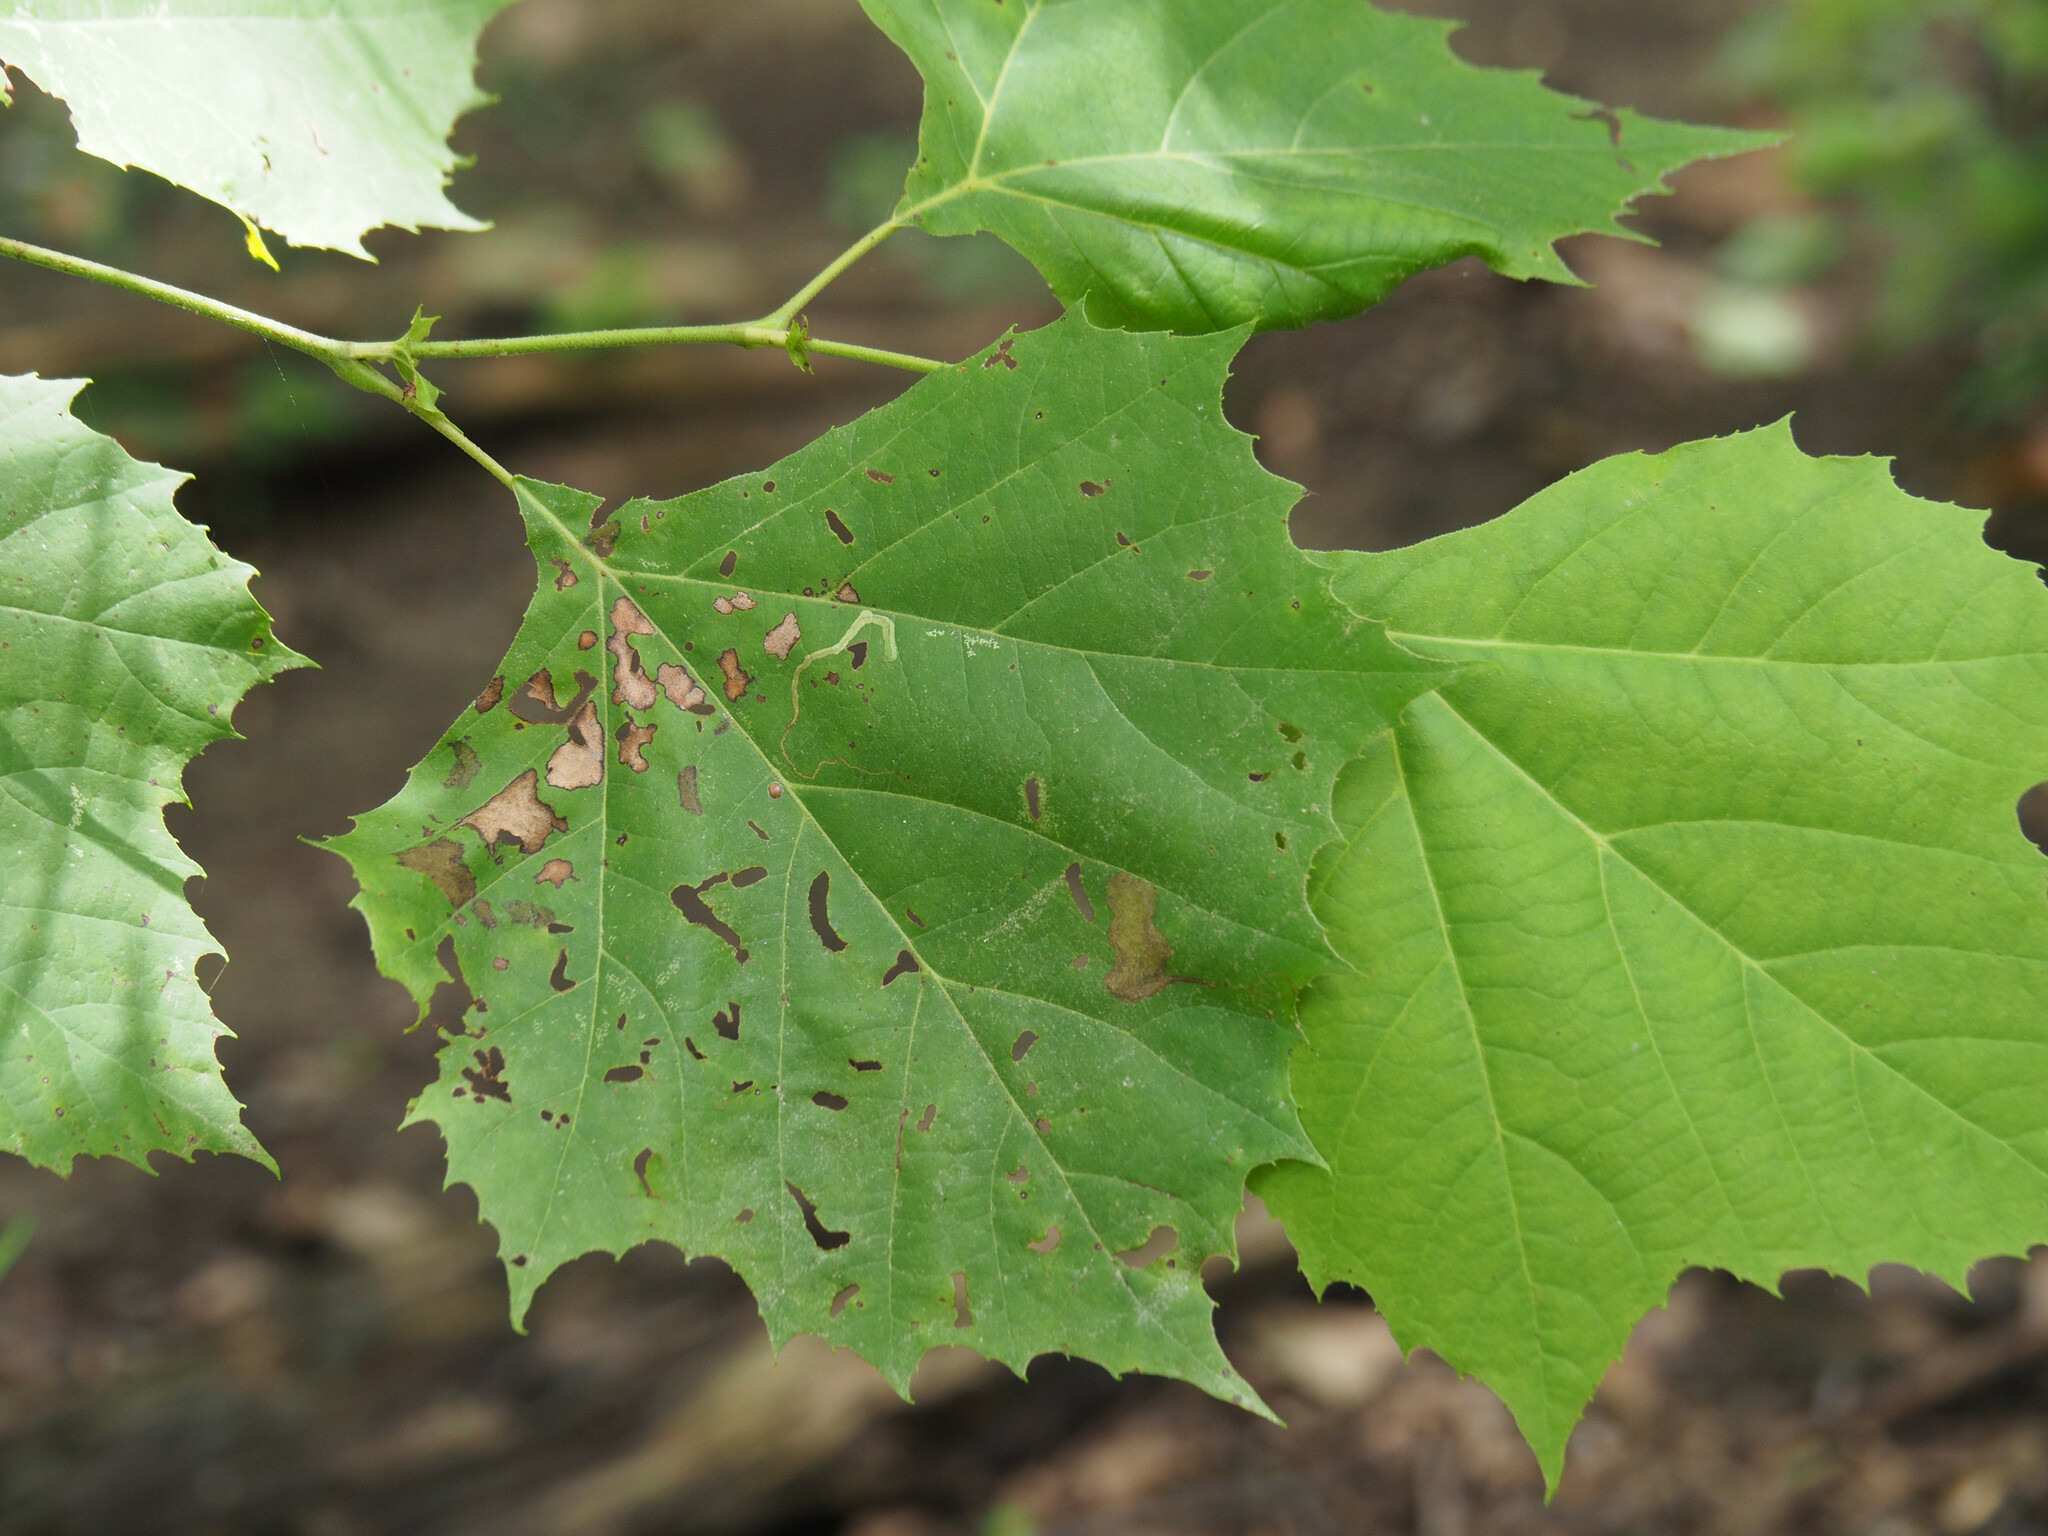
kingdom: Animalia
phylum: Arthropoda
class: Insecta
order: Lepidoptera
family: Nepticulidae
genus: Ectoedemia
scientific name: Ectoedemia clemensella
